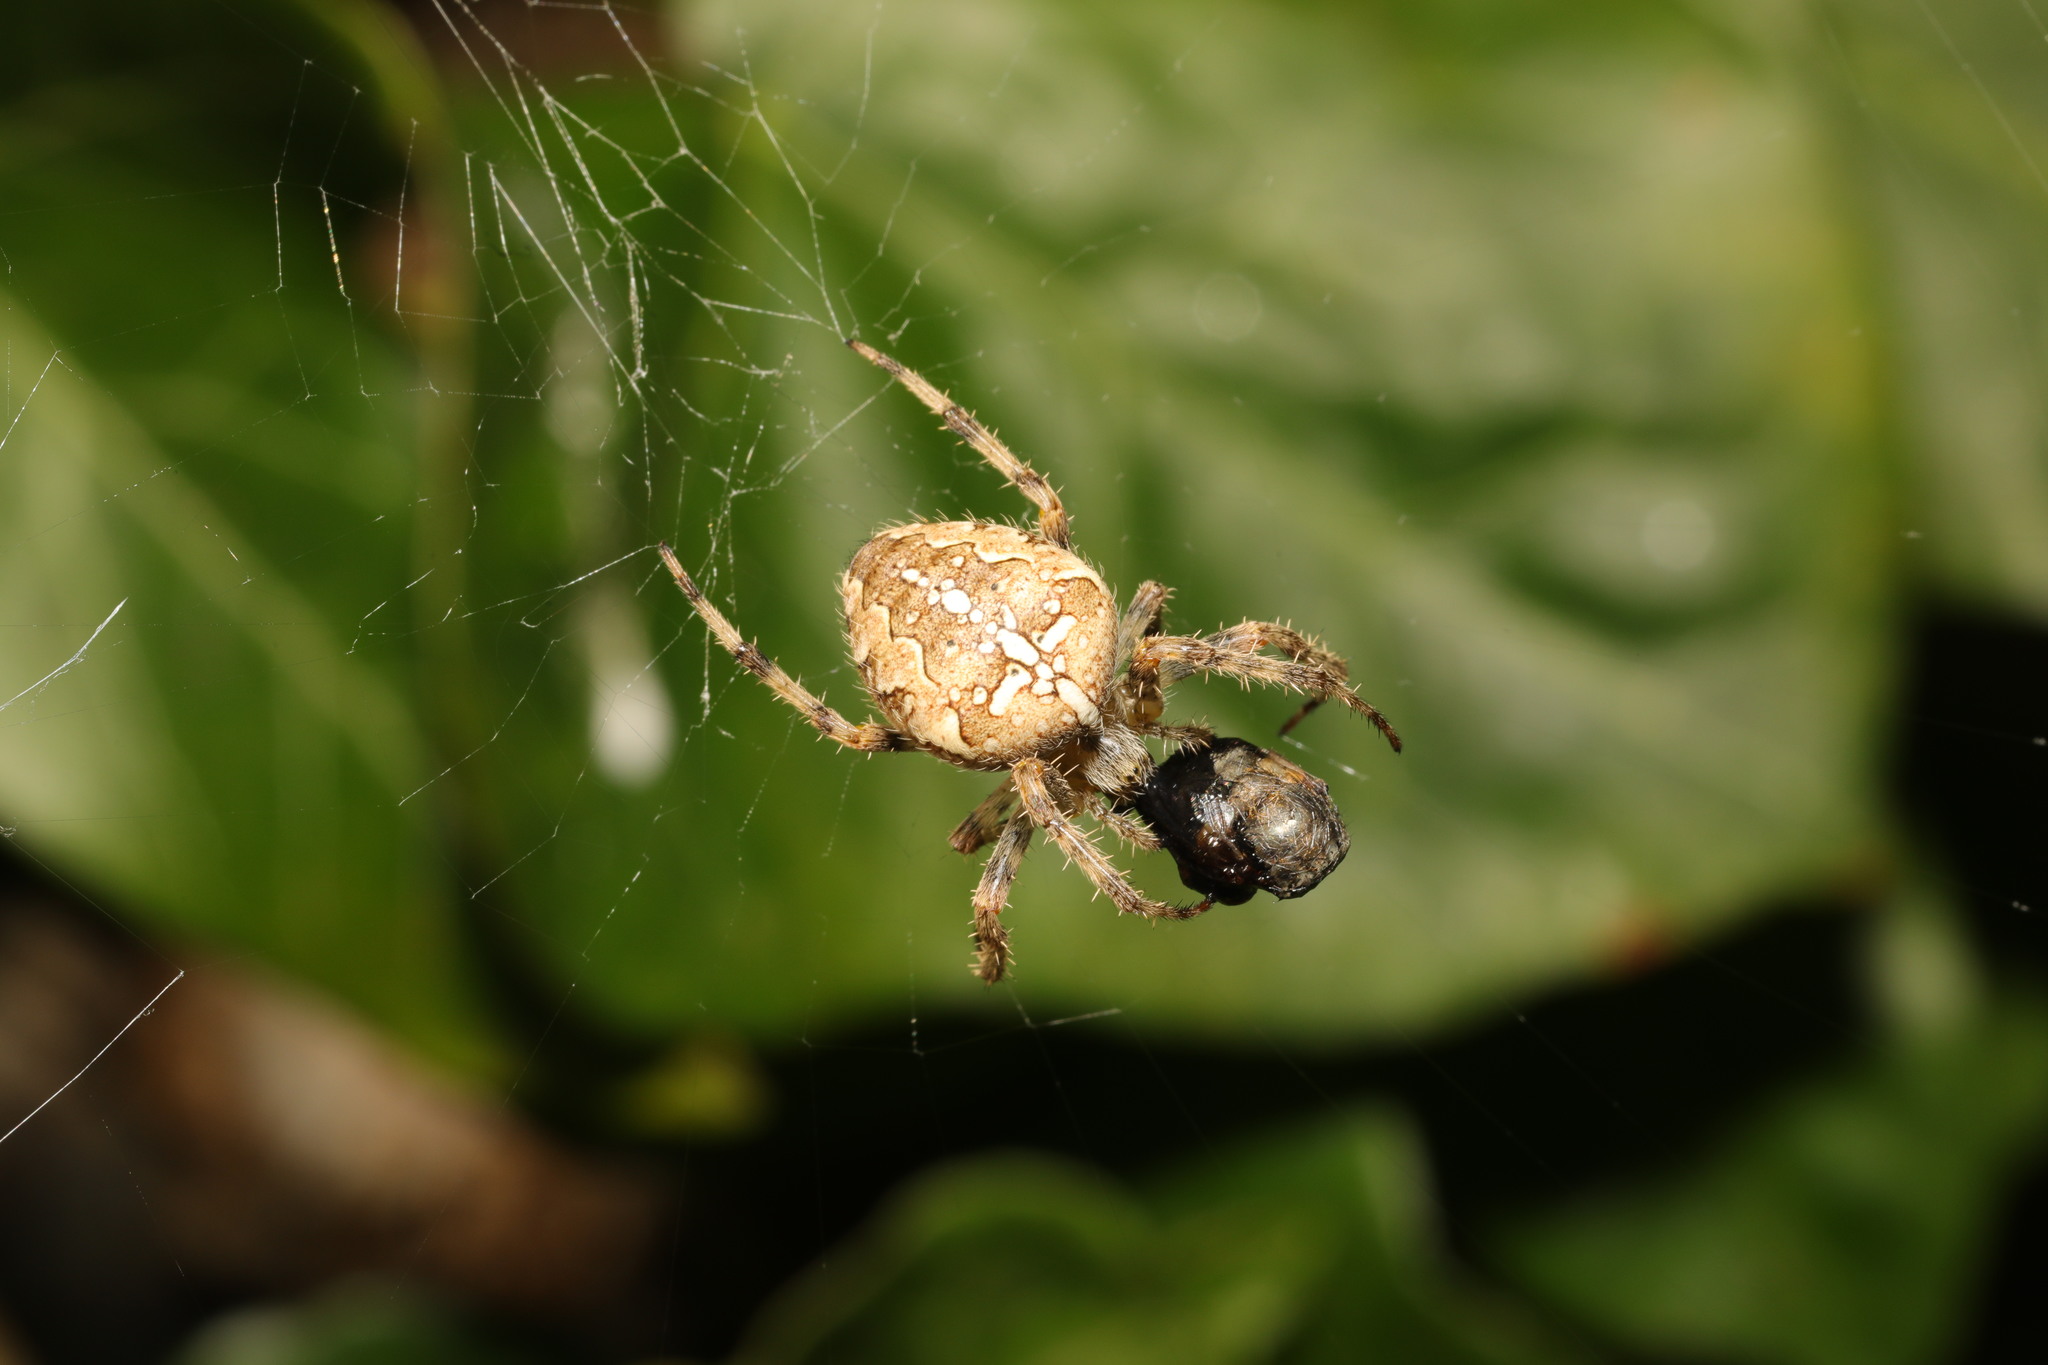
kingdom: Animalia
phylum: Arthropoda
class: Arachnida
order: Araneae
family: Araneidae
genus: Araneus
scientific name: Araneus diadematus
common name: Cross orbweaver
